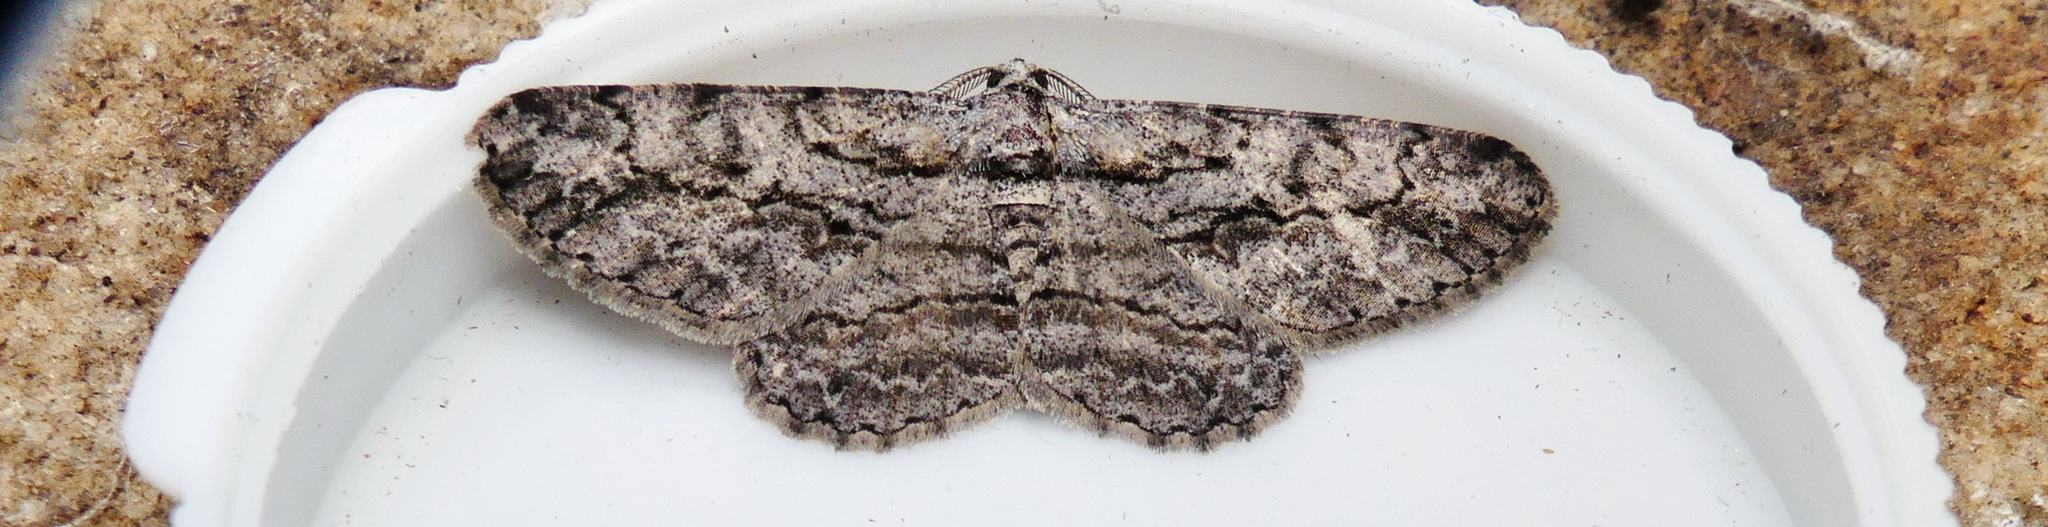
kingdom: Animalia
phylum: Arthropoda
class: Insecta
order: Lepidoptera
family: Geometridae
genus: Anavitrinella
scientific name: Anavitrinella pampinaria
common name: Common gray
